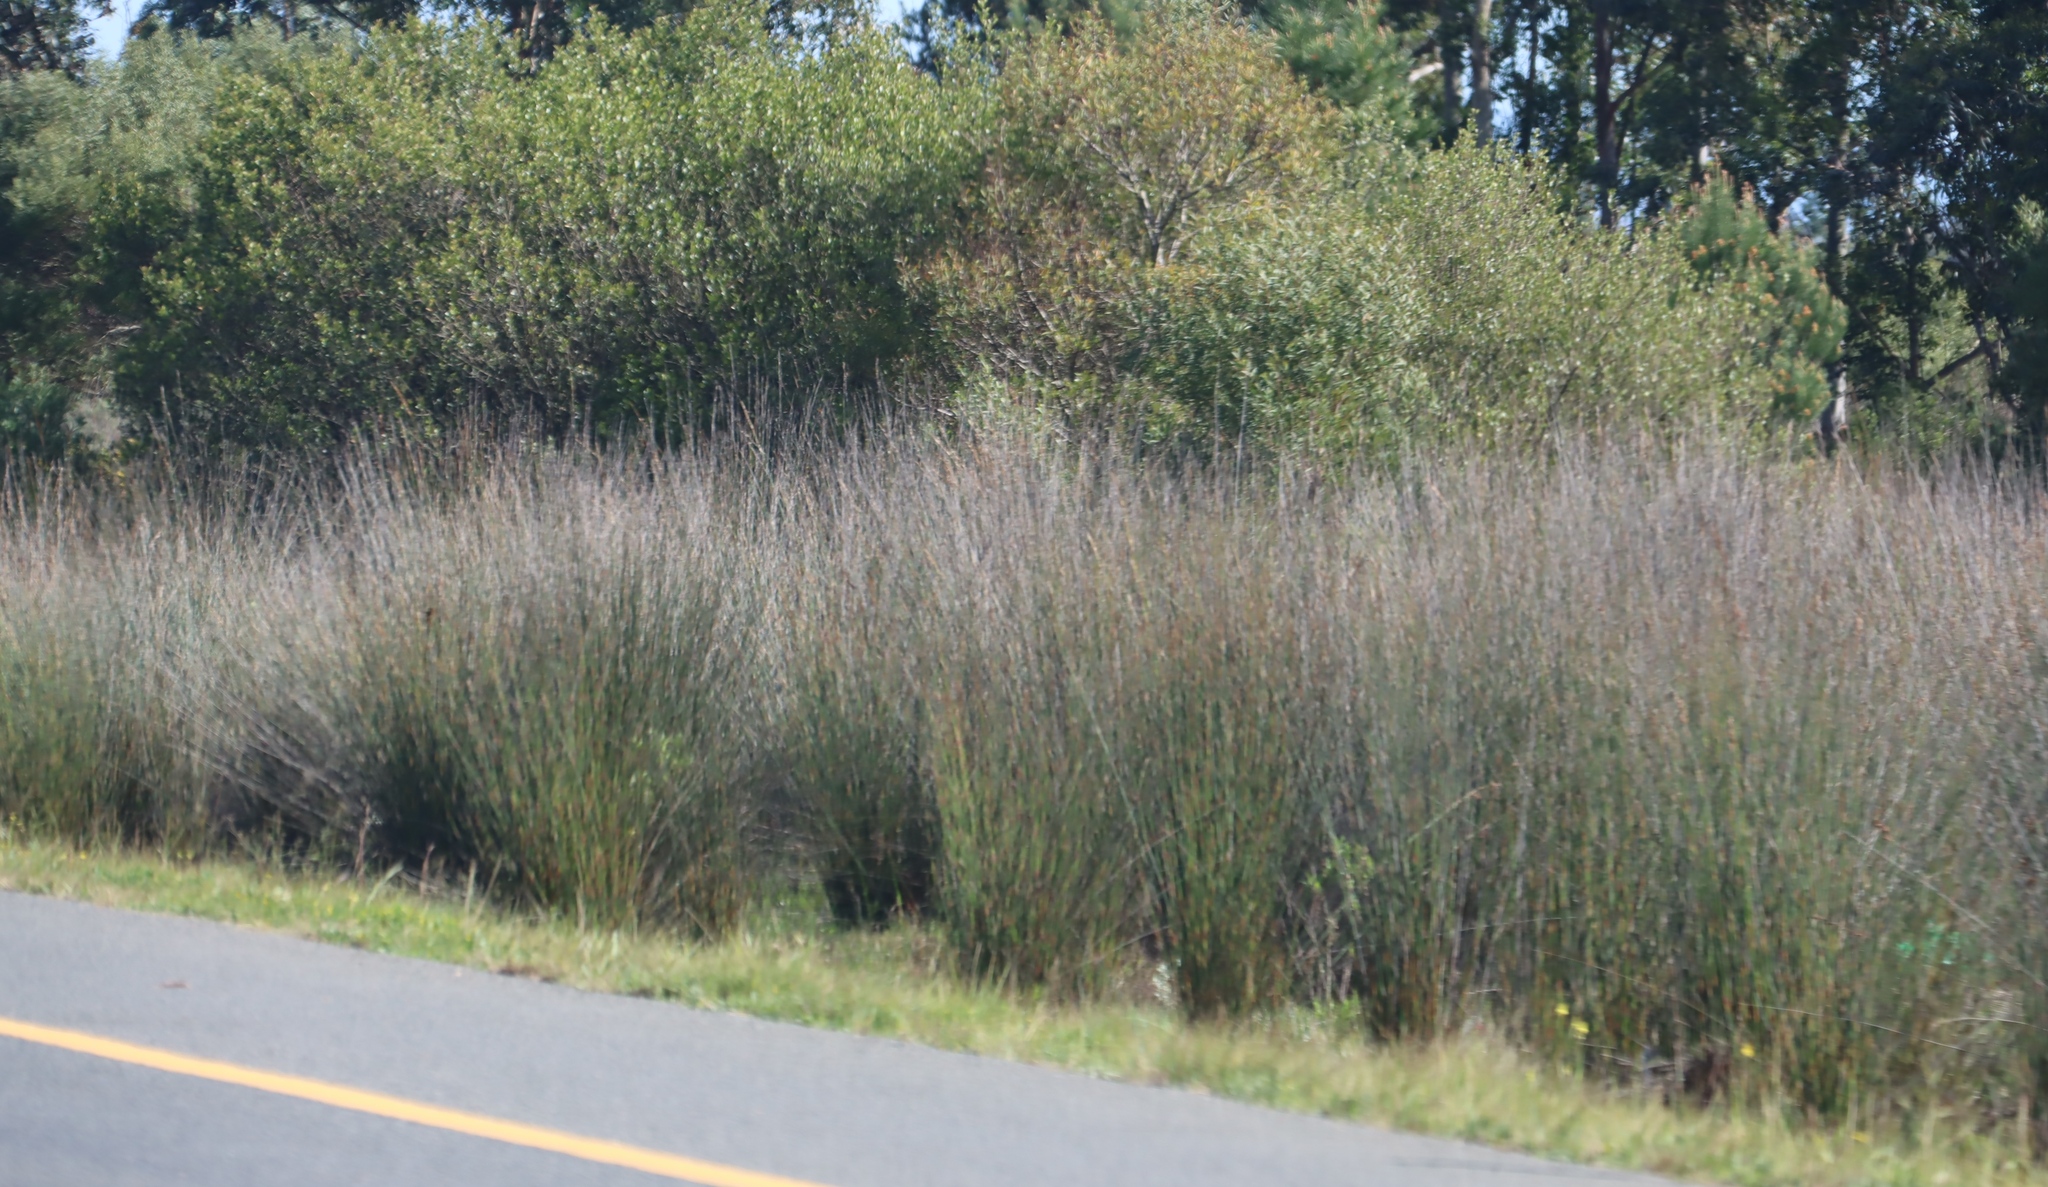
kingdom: Plantae
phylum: Tracheophyta
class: Liliopsida
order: Poales
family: Restionaceae
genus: Thamnochortus
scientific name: Thamnochortus insignis
